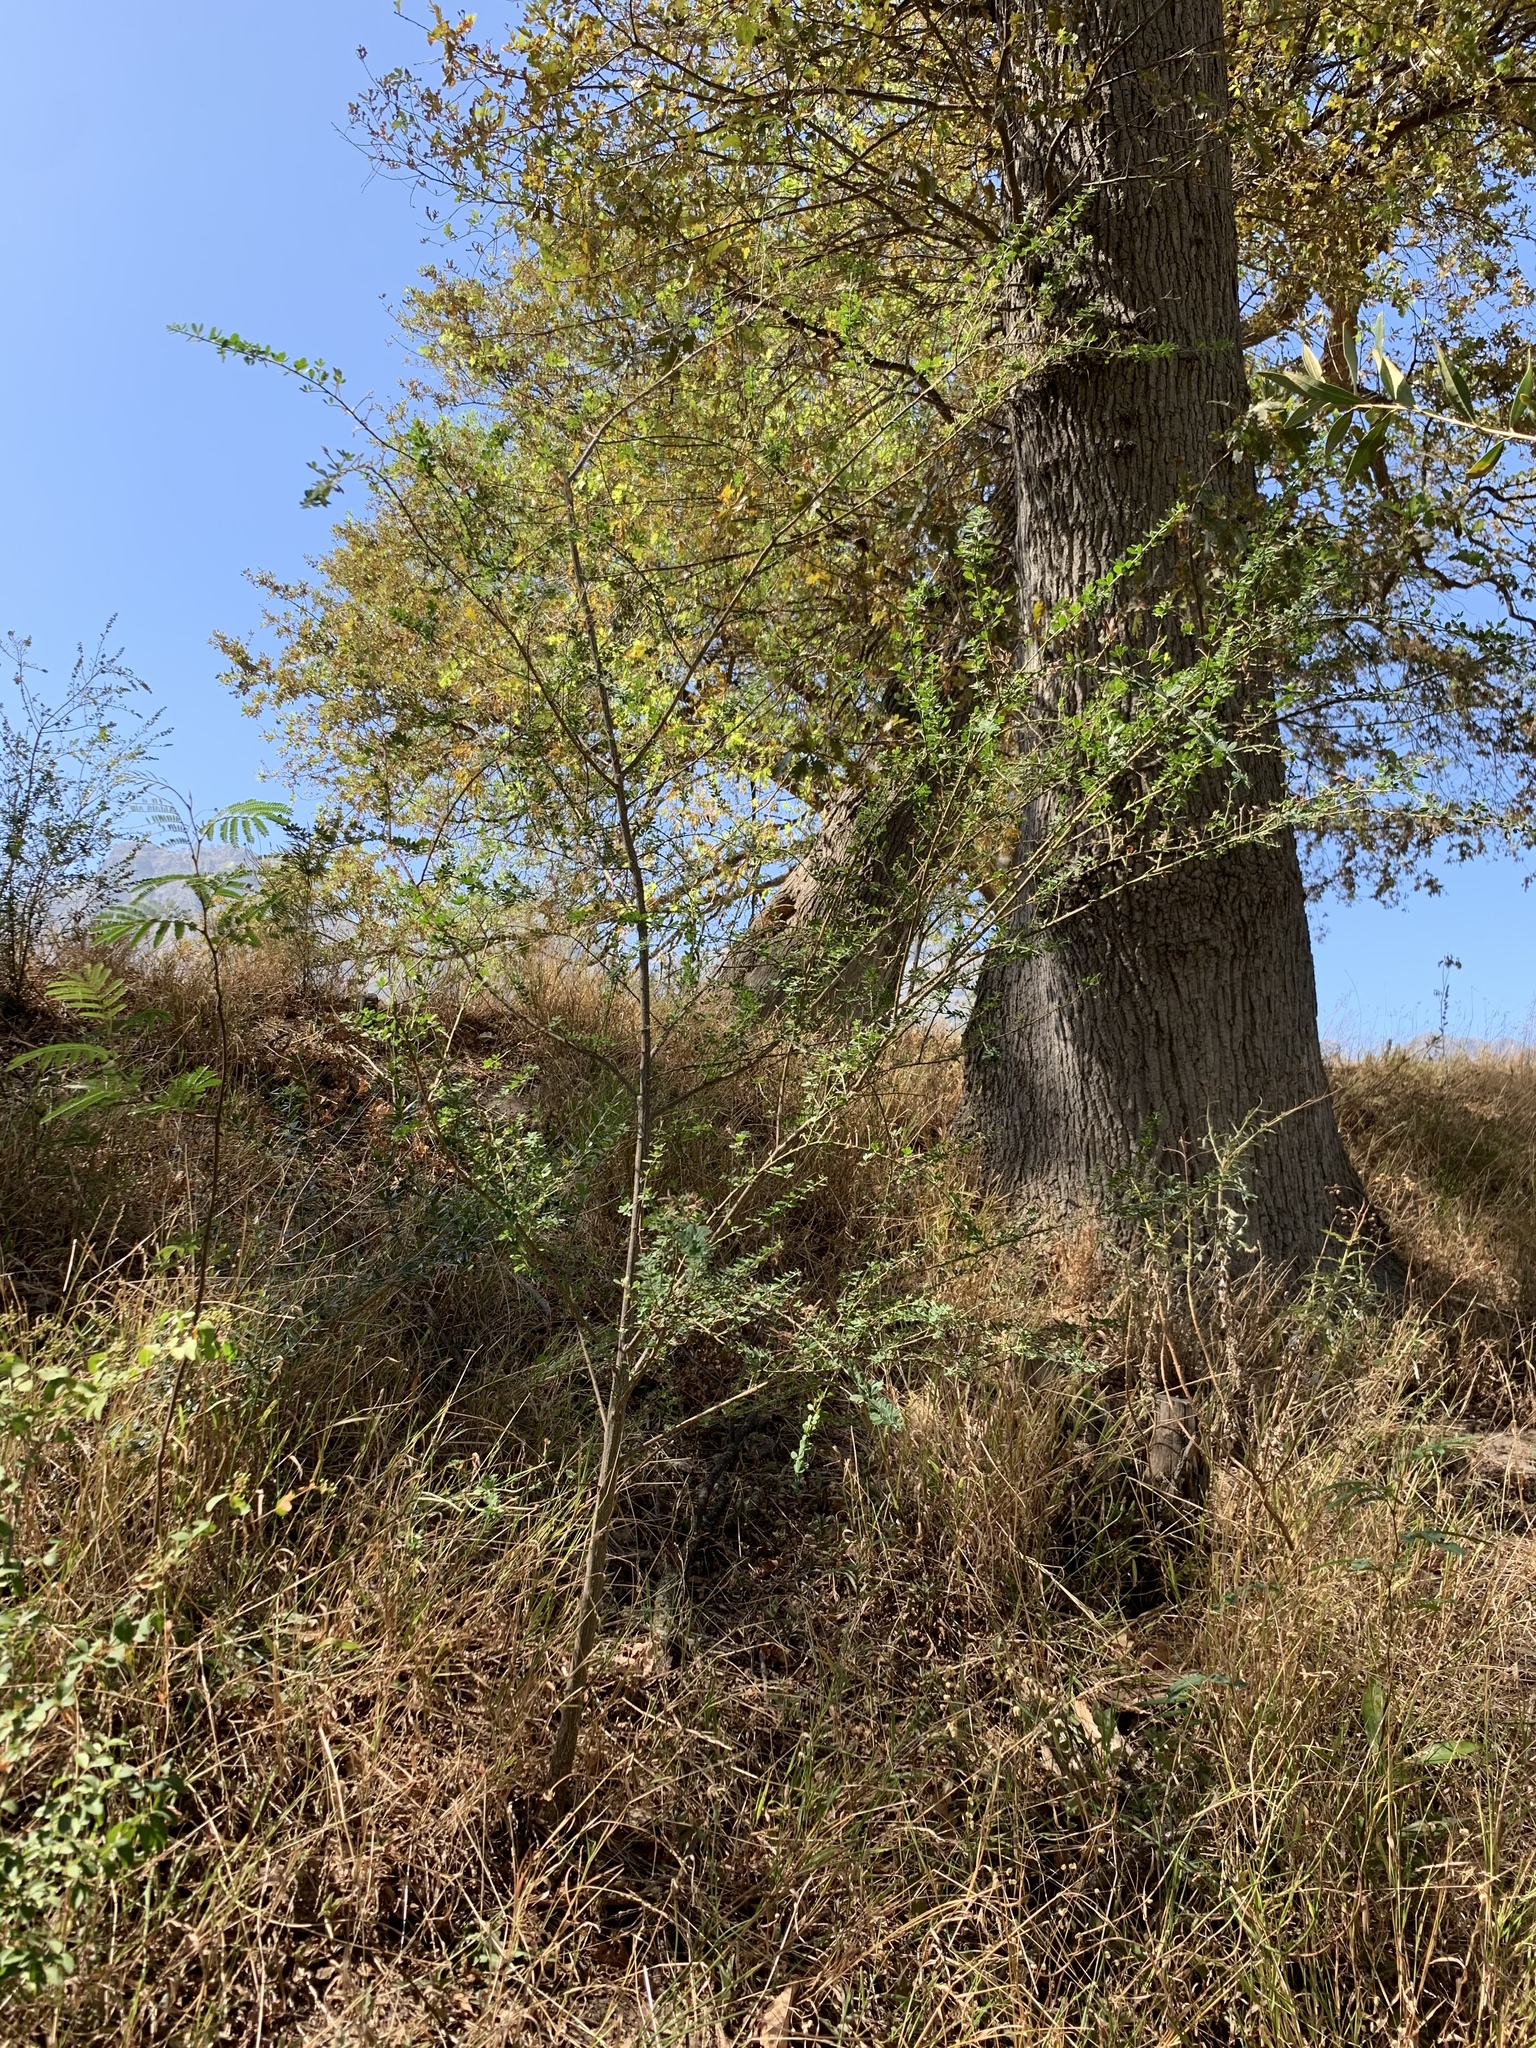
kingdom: Plantae
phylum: Tracheophyta
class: Magnoliopsida
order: Fabales
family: Fabaceae
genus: Genista
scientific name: Genista monspessulana
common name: Montpellier broom
